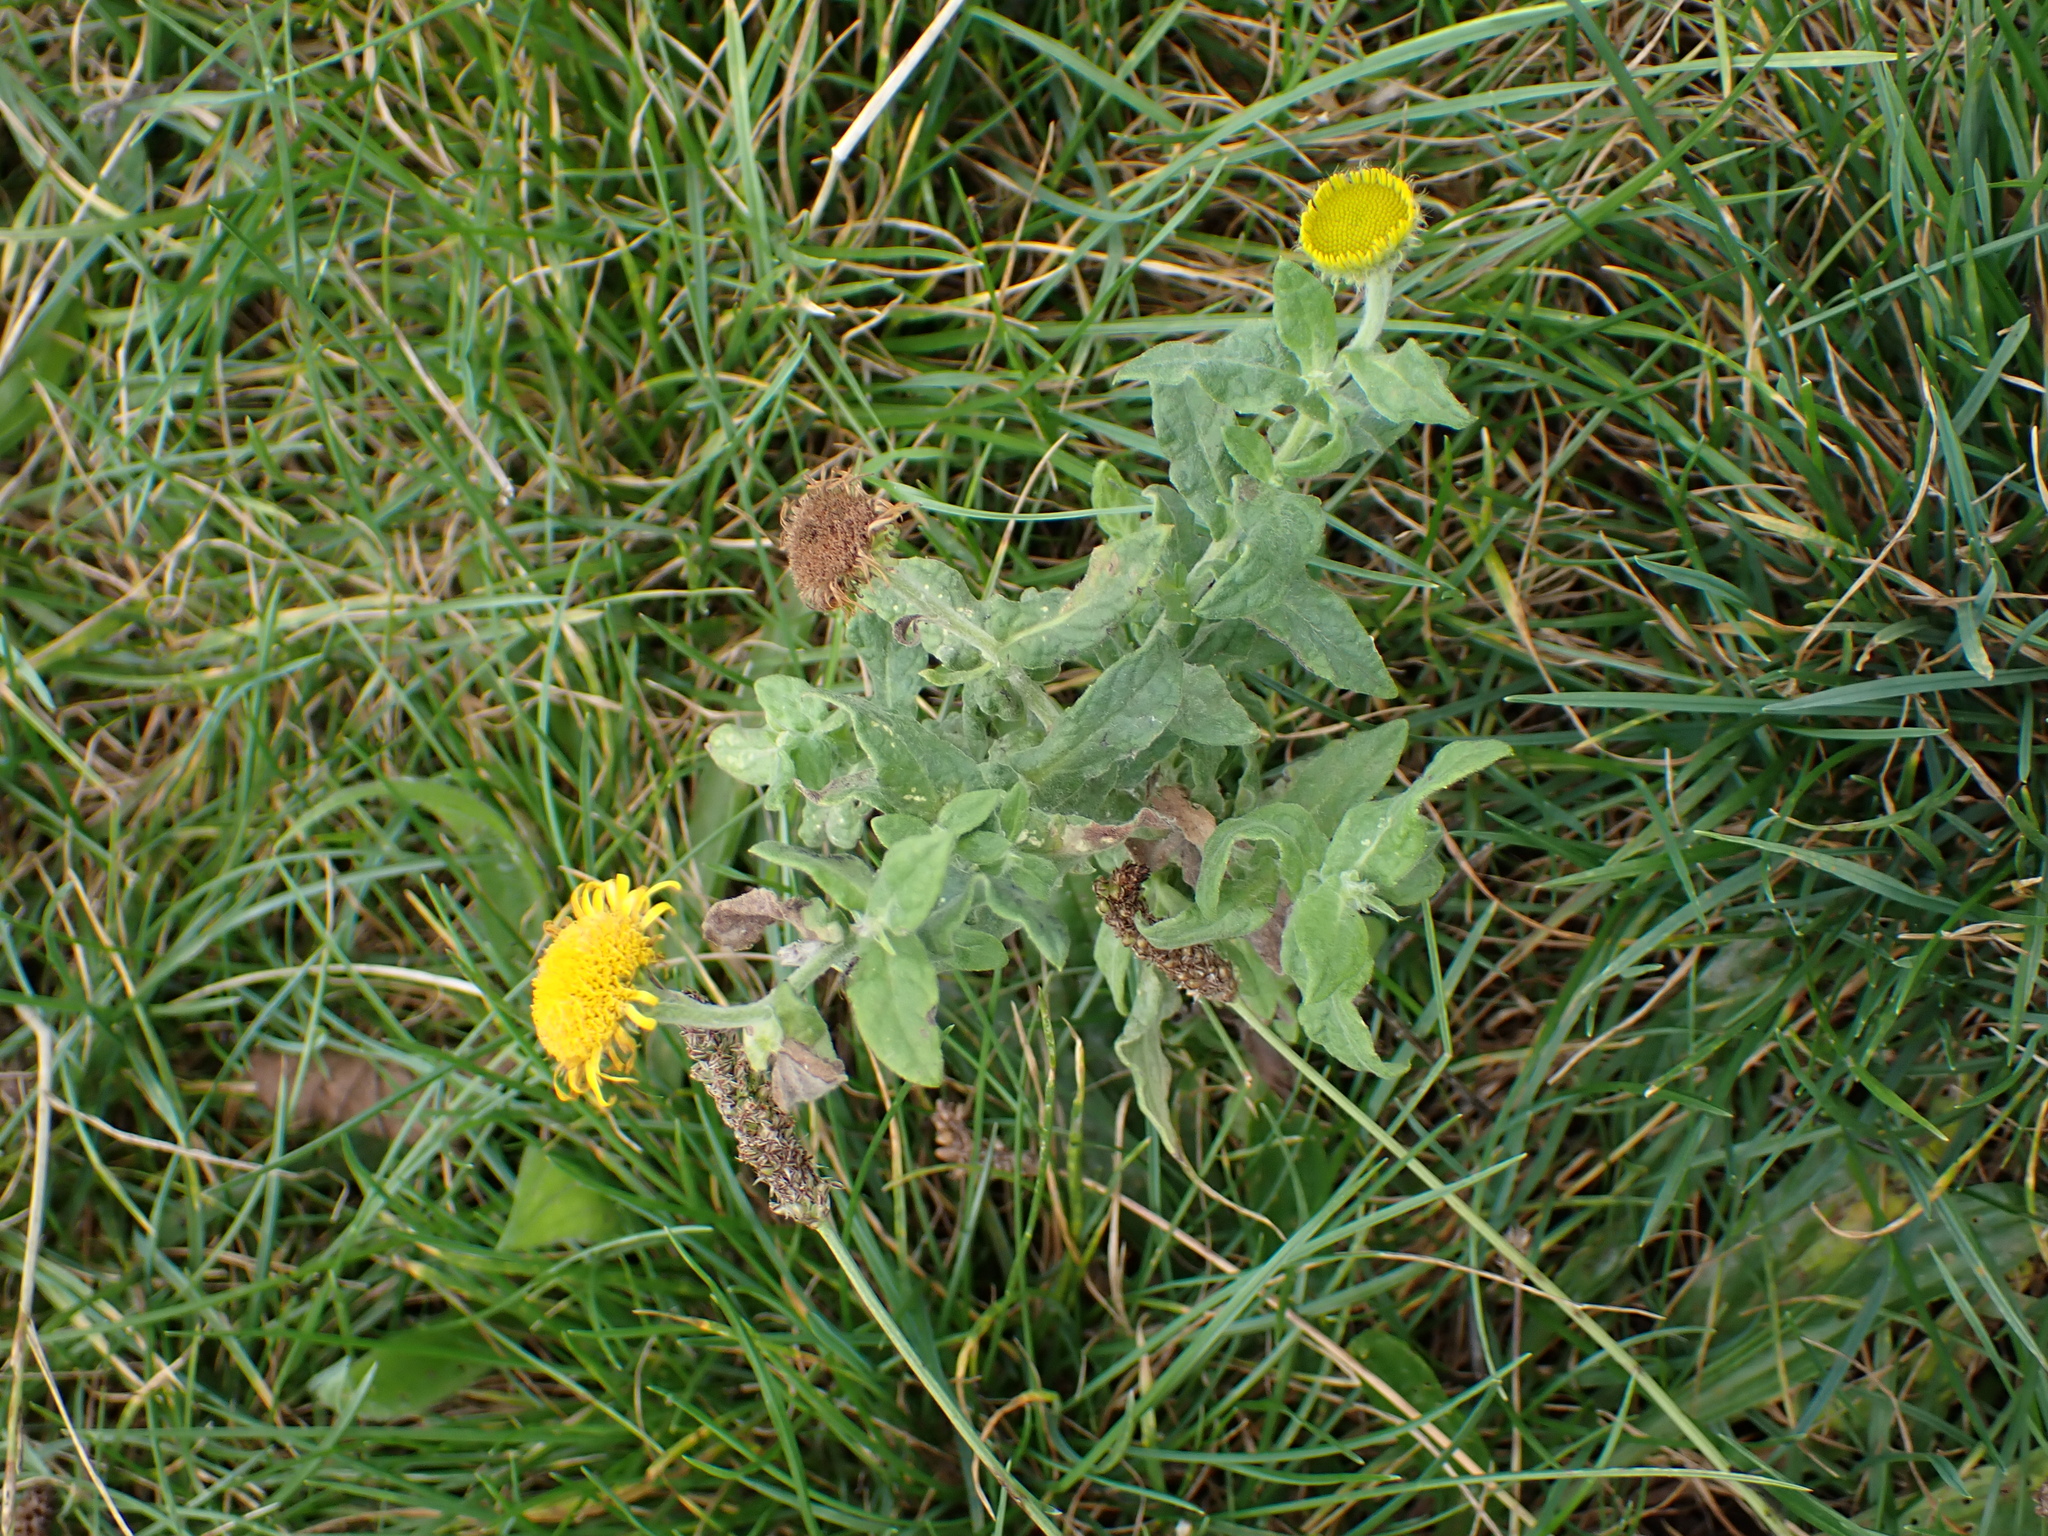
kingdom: Plantae
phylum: Tracheophyta
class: Magnoliopsida
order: Asterales
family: Asteraceae
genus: Pulicaria
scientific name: Pulicaria dysenterica
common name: Common fleabane
